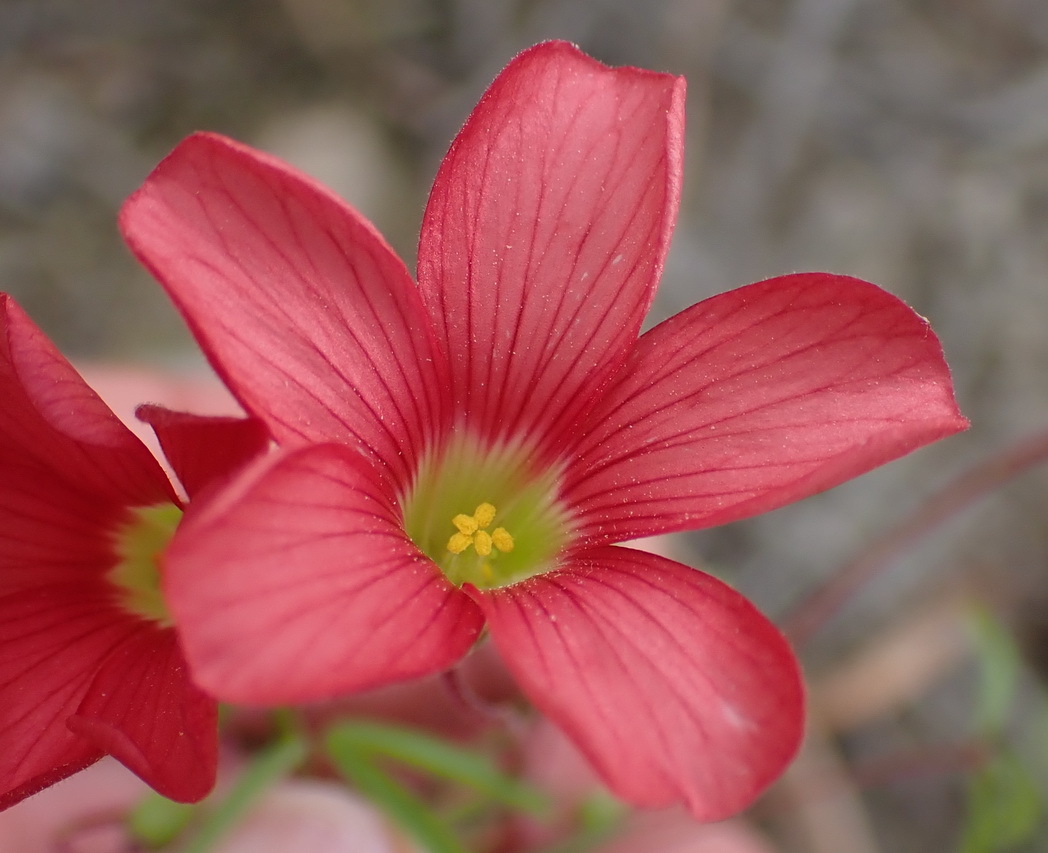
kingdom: Plantae
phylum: Tracheophyta
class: Magnoliopsida
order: Oxalidales
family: Oxalidaceae
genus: Oxalis
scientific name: Oxalis pendulifolia
